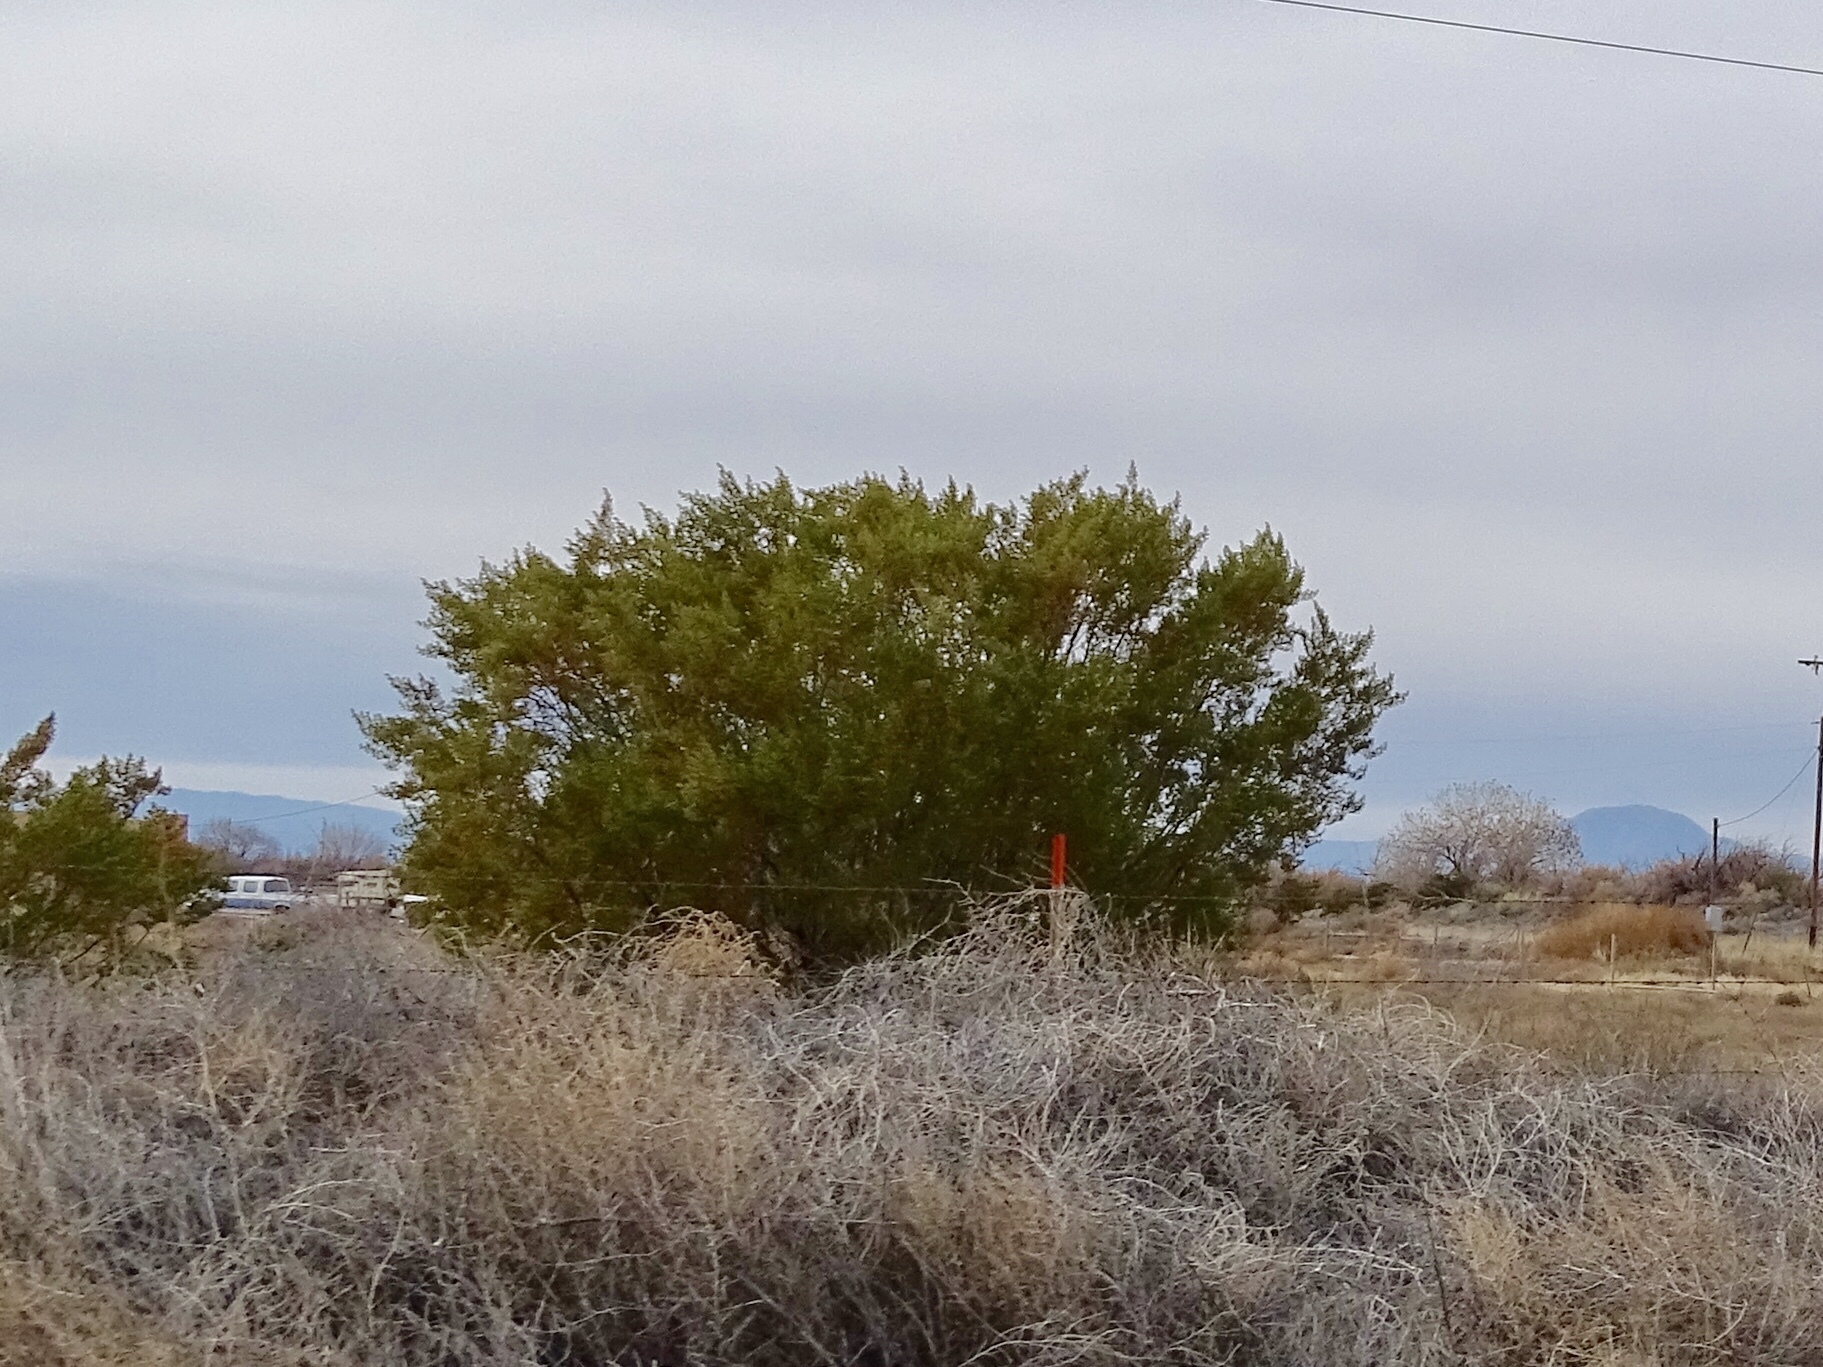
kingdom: Plantae
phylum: Tracheophyta
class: Magnoliopsida
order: Zygophyllales
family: Zygophyllaceae
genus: Larrea
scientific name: Larrea tridentata
